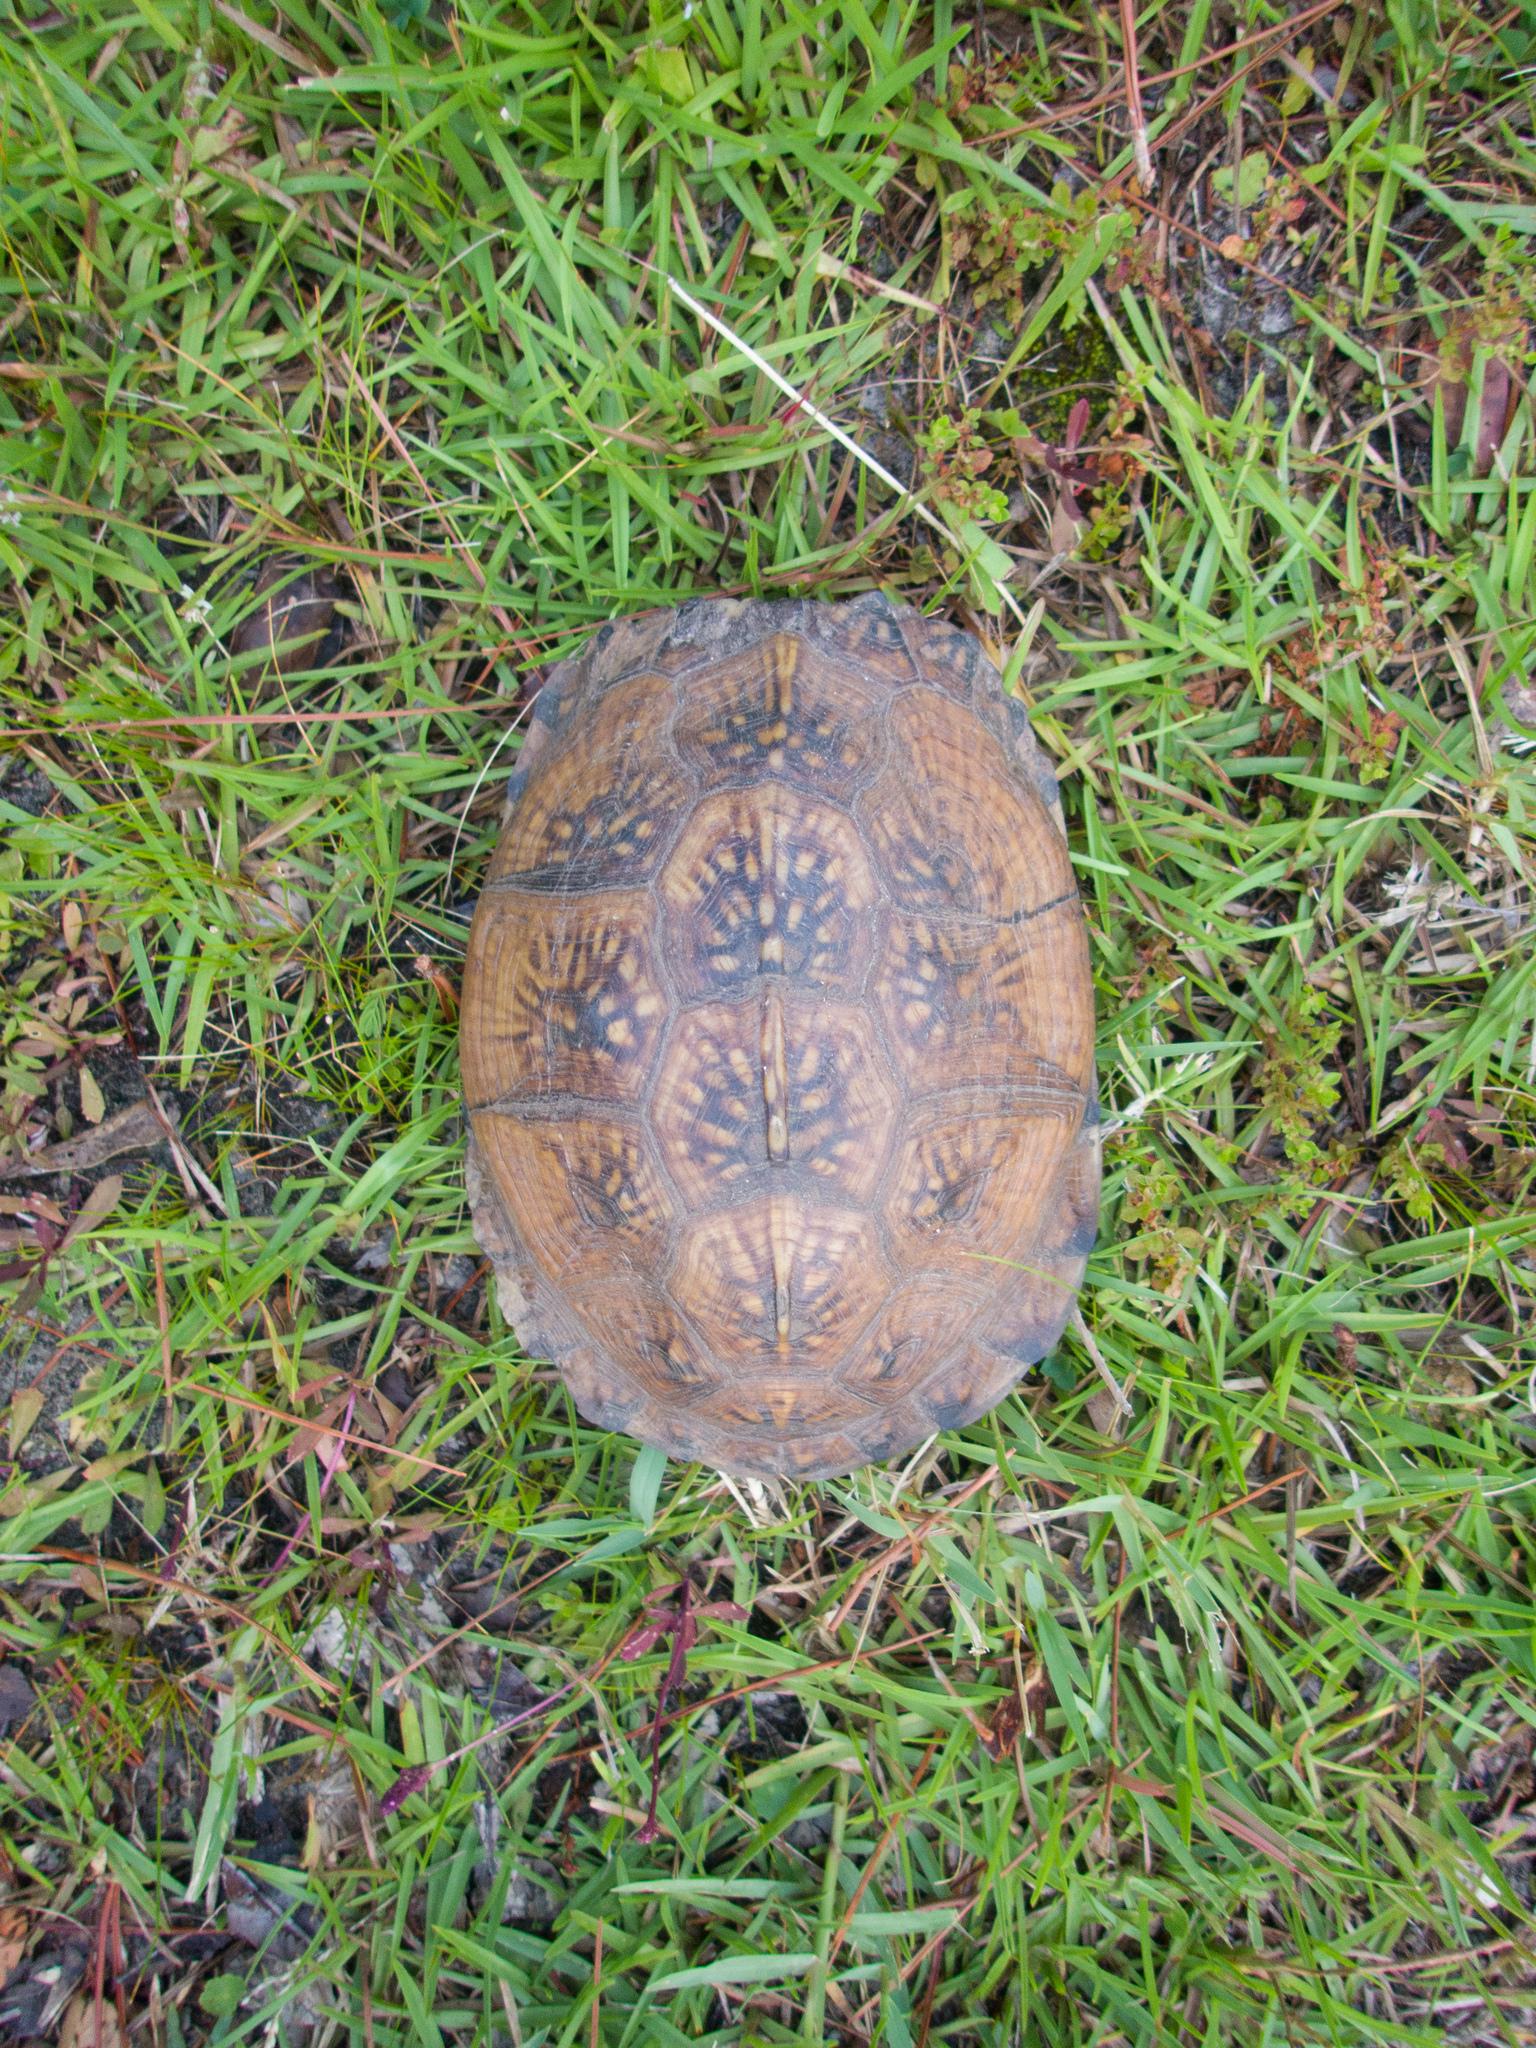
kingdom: Animalia
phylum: Chordata
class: Testudines
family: Emydidae
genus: Terrapene
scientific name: Terrapene carolina
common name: Common box turtle
